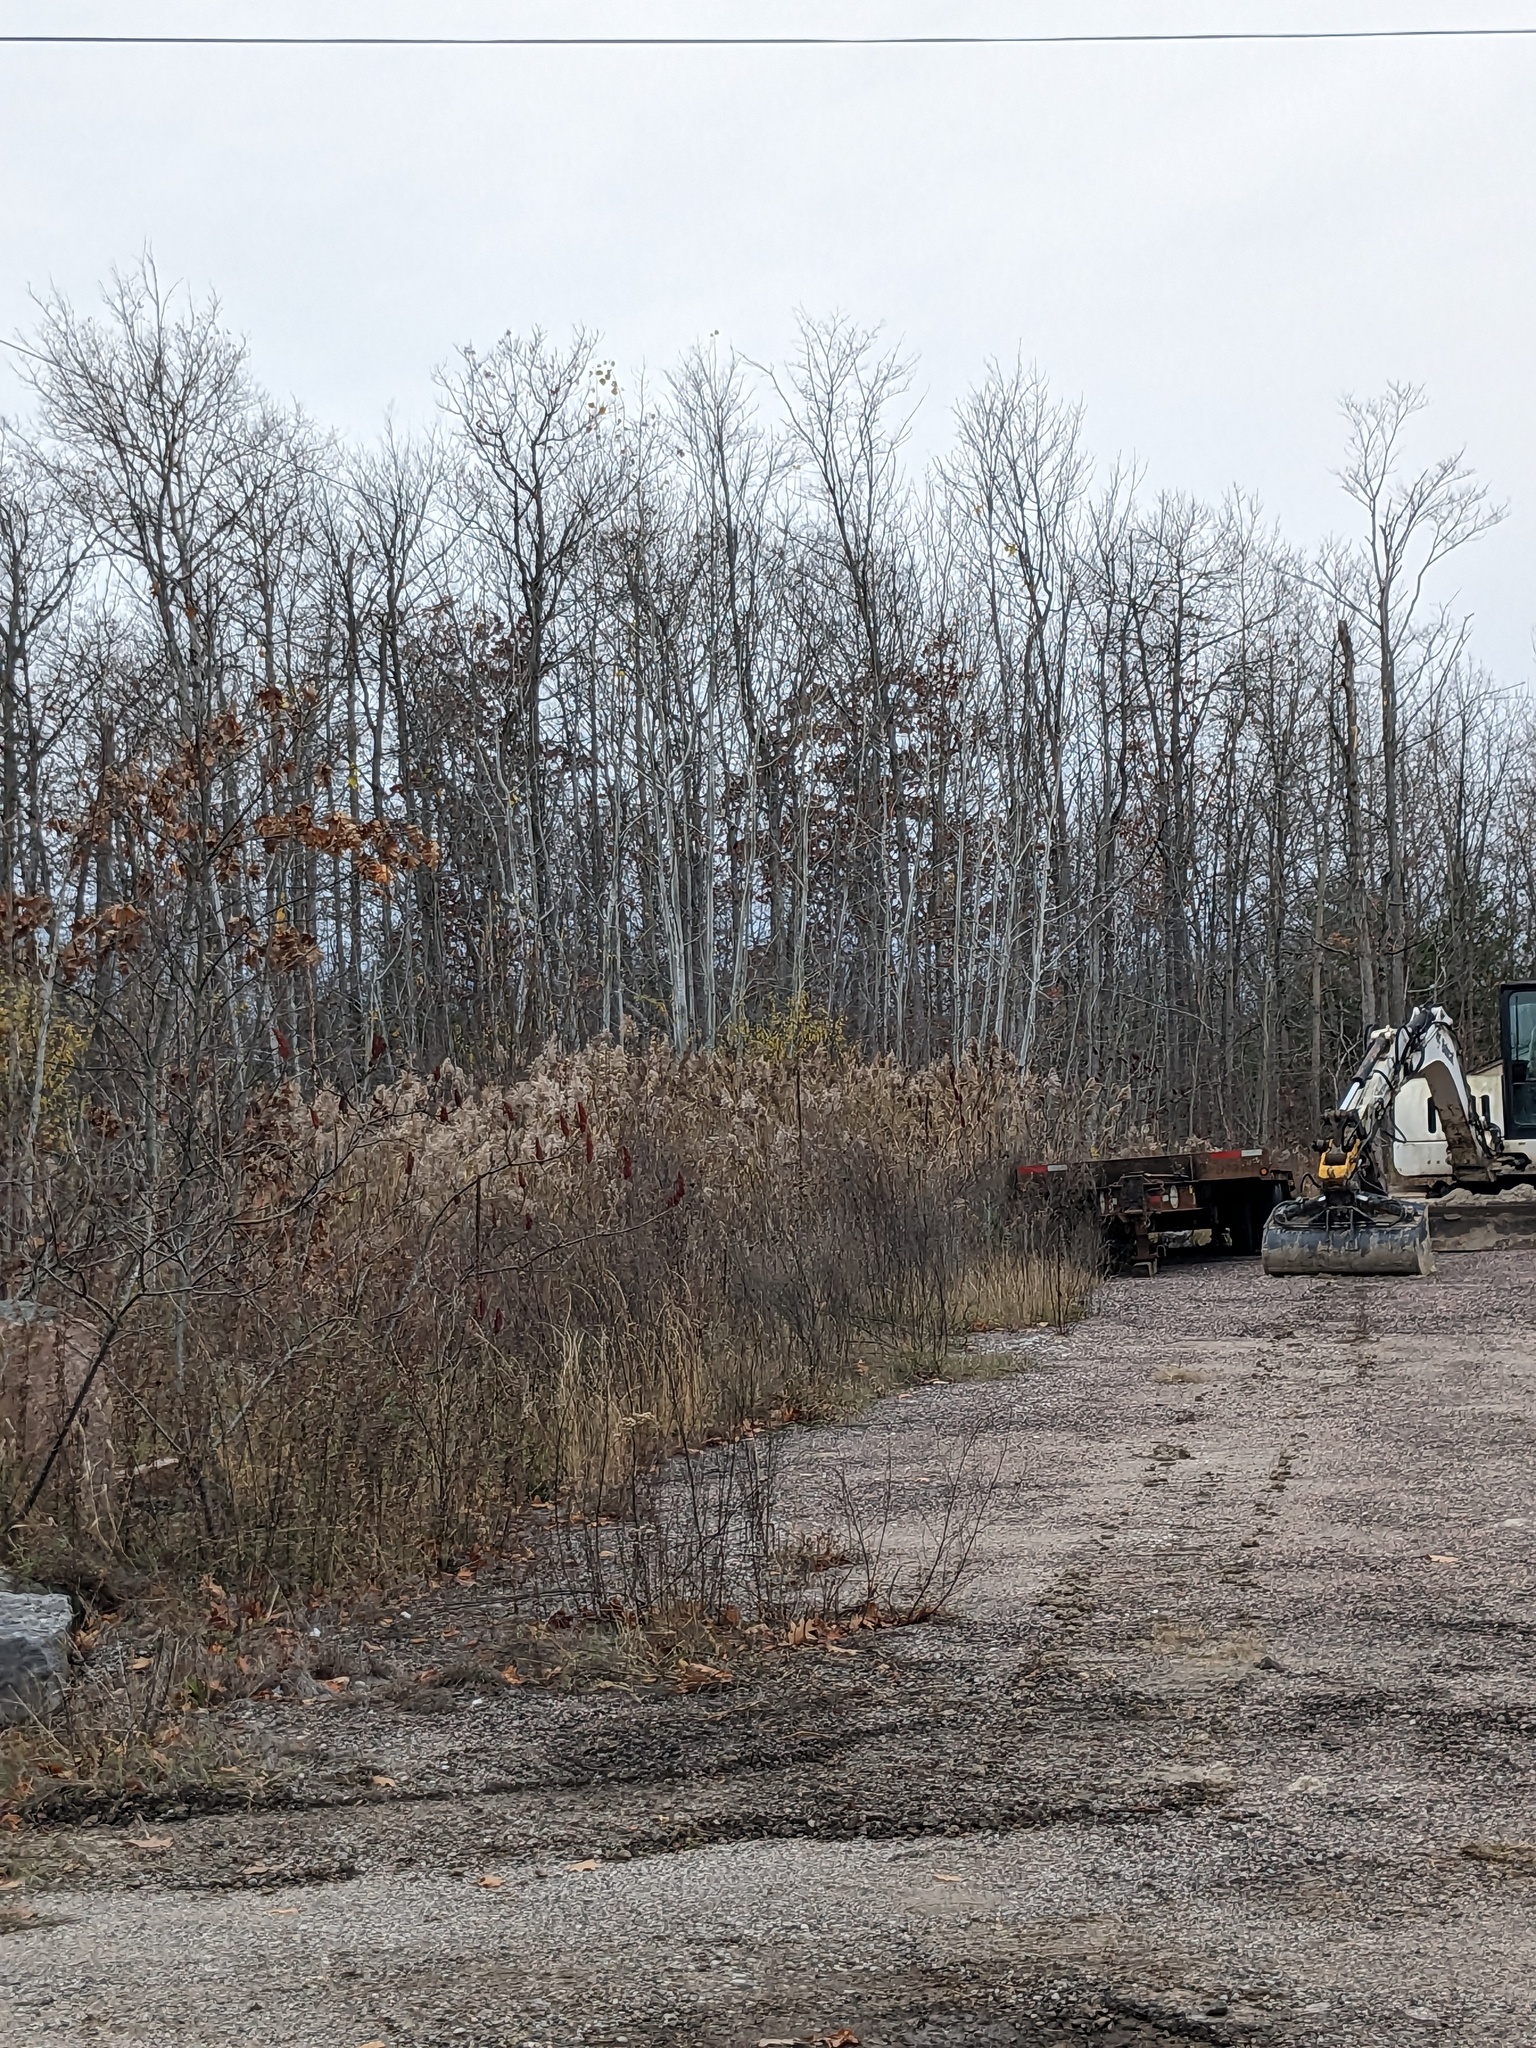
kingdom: Plantae
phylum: Tracheophyta
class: Liliopsida
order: Poales
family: Poaceae
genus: Phragmites
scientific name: Phragmites australis
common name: Common reed
